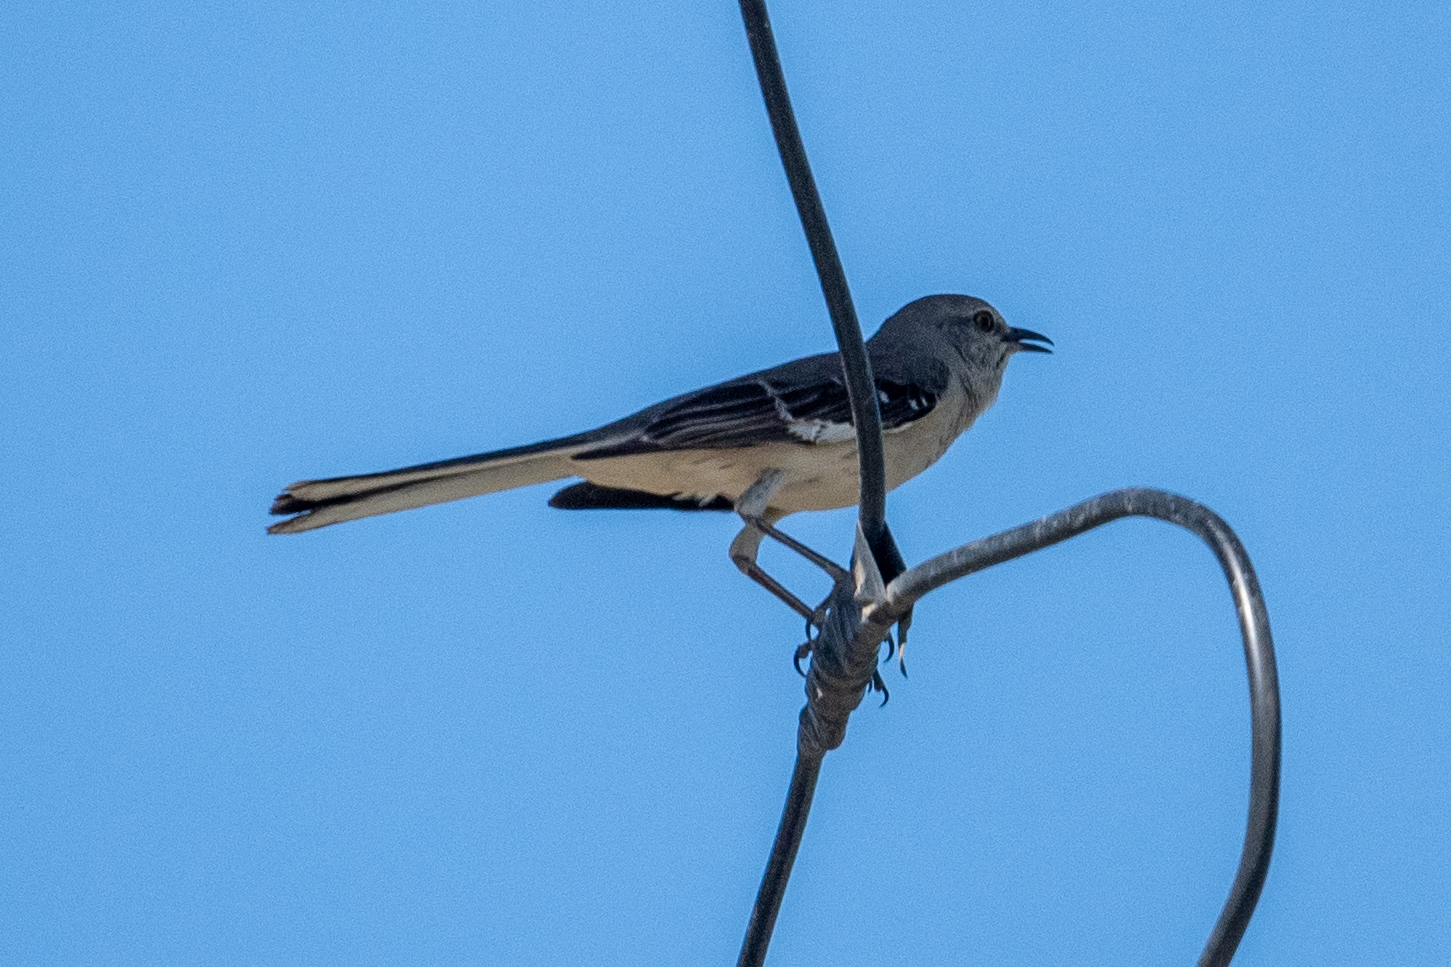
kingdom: Animalia
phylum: Chordata
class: Aves
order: Passeriformes
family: Mimidae
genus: Mimus
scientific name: Mimus polyglottos
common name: Northern mockingbird
